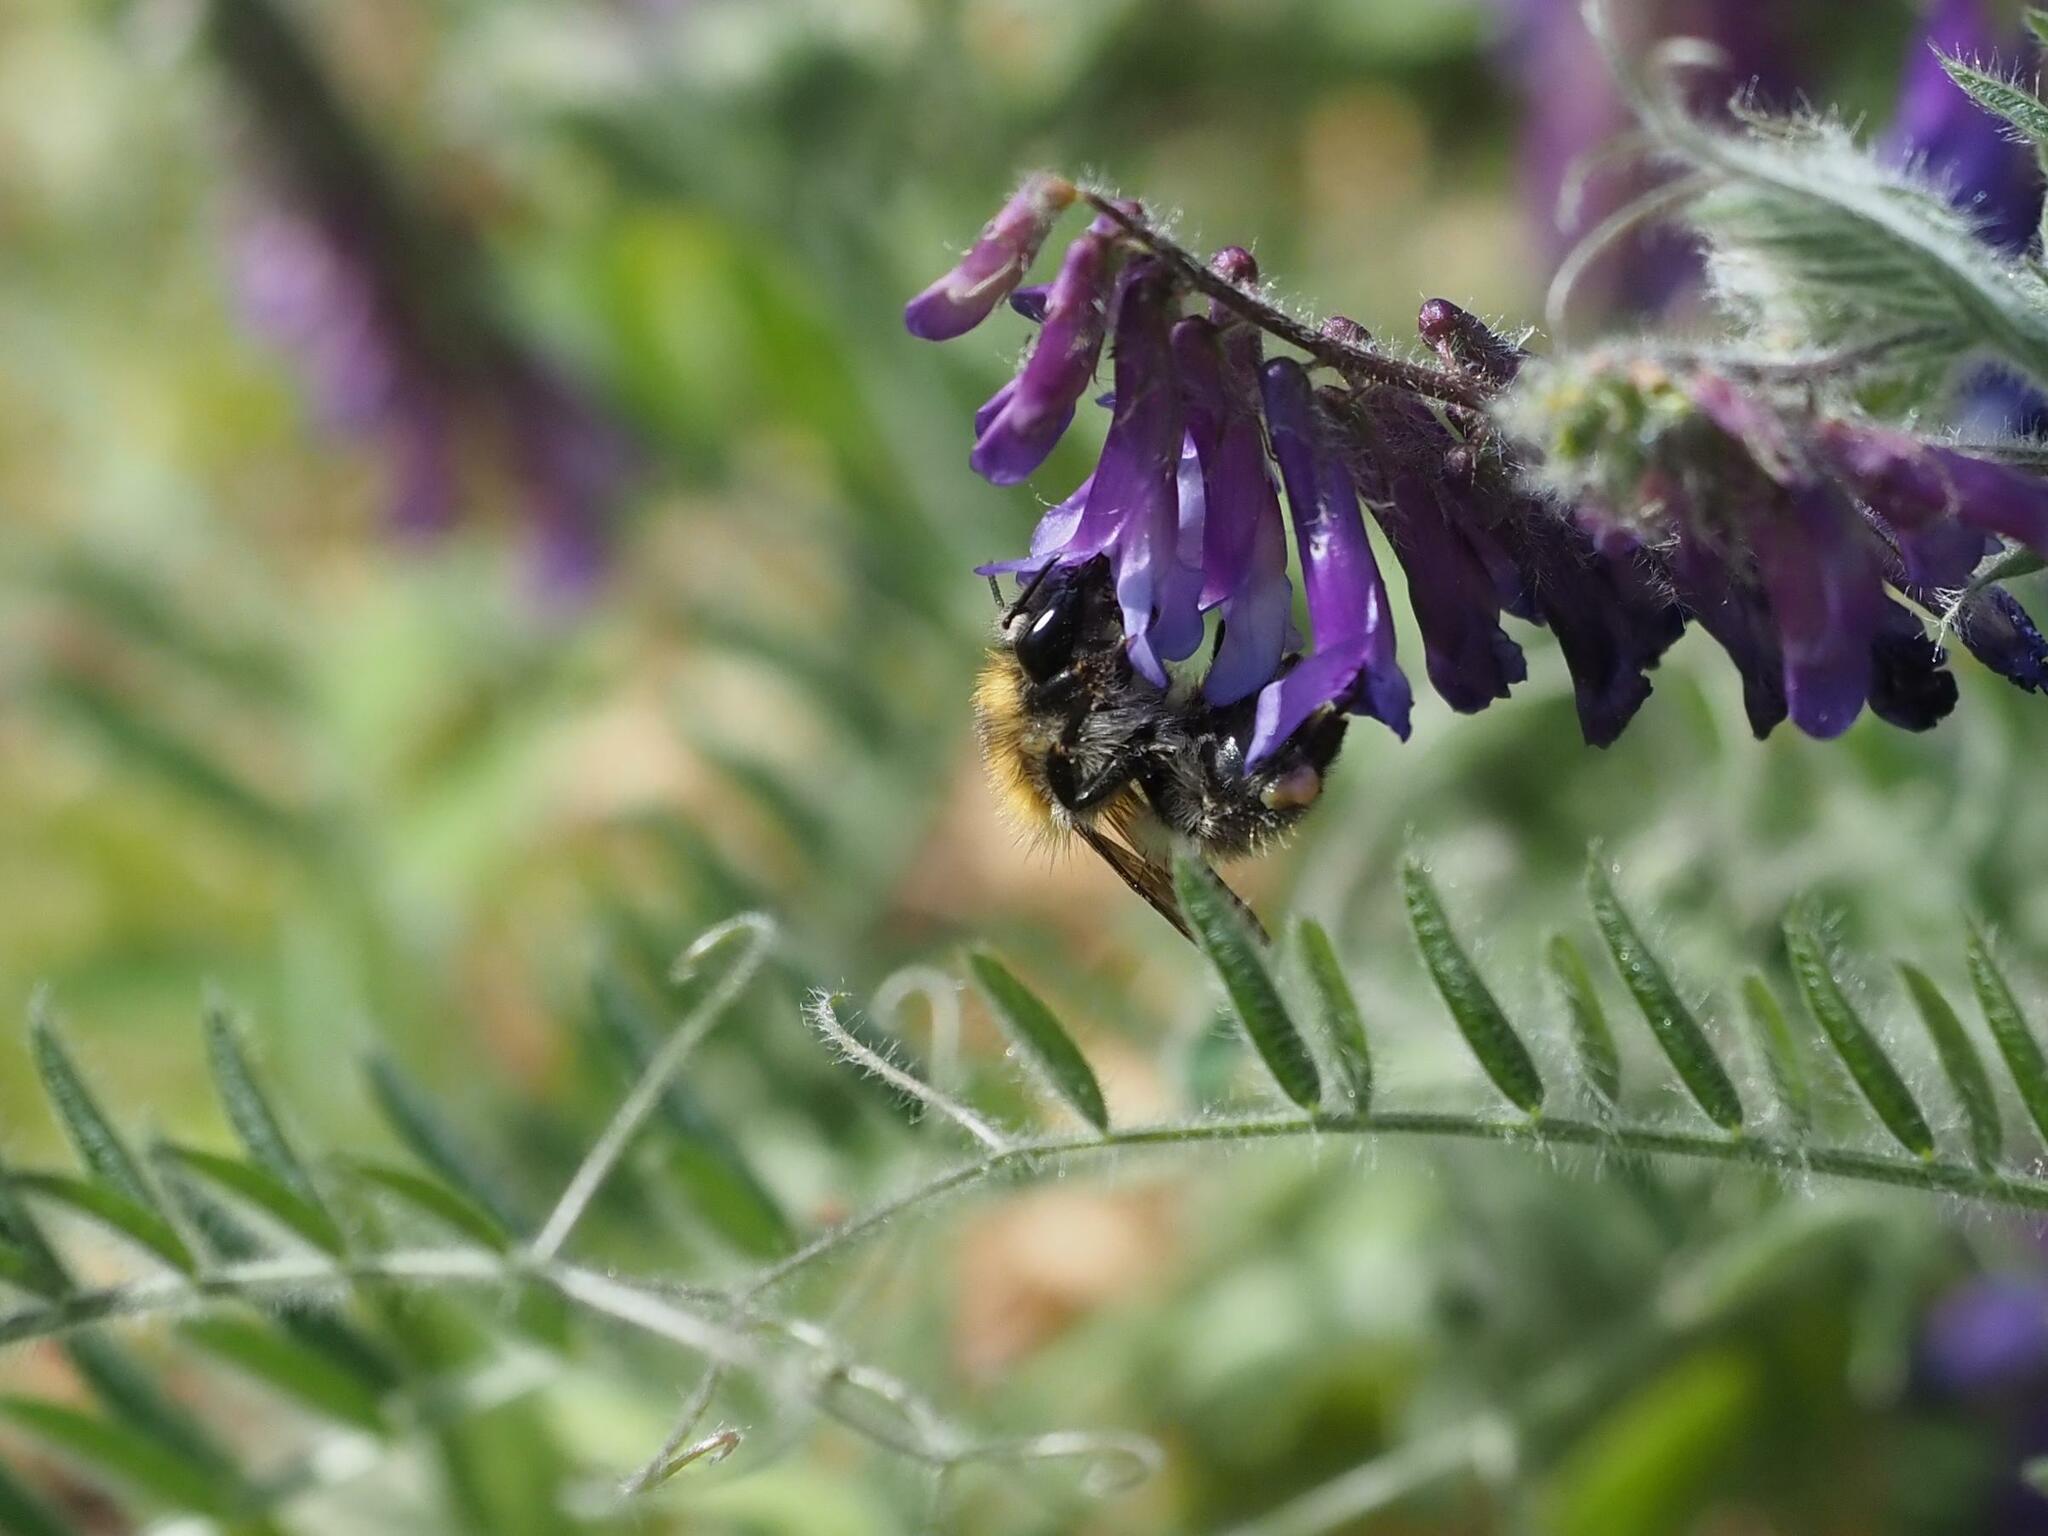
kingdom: Animalia
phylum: Arthropoda
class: Insecta
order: Hymenoptera
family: Apidae
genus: Bombus
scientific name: Bombus pascuorum
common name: Common carder bee
